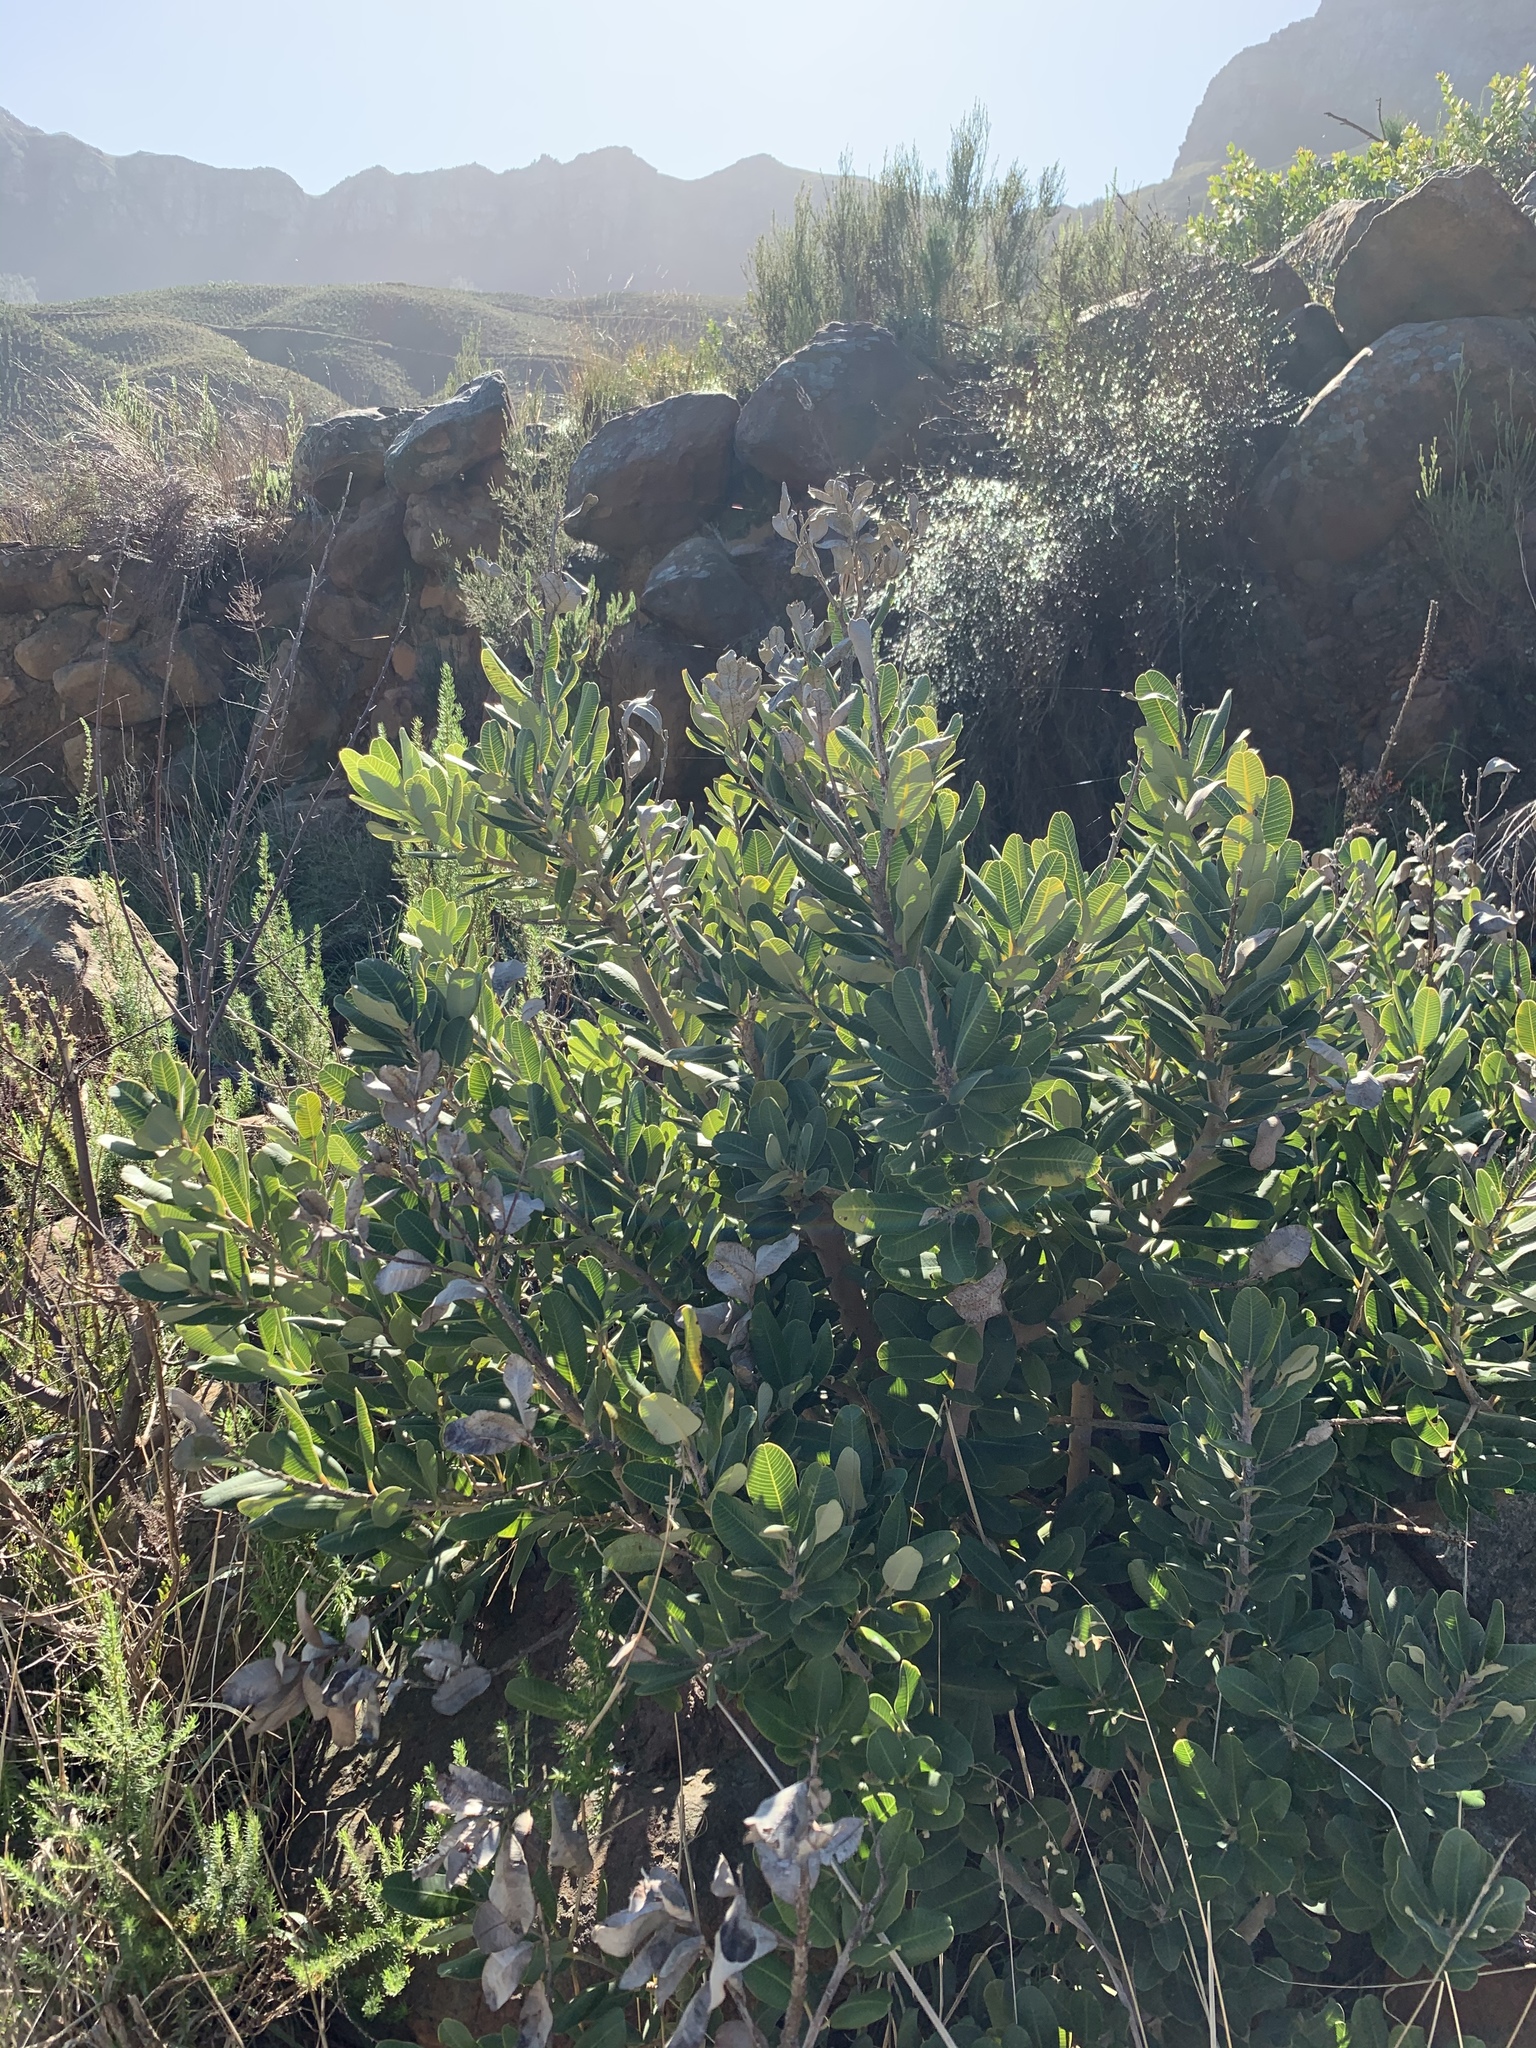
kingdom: Plantae
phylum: Tracheophyta
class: Magnoliopsida
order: Sapindales
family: Anacardiaceae
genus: Heeria
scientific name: Heeria argentea
